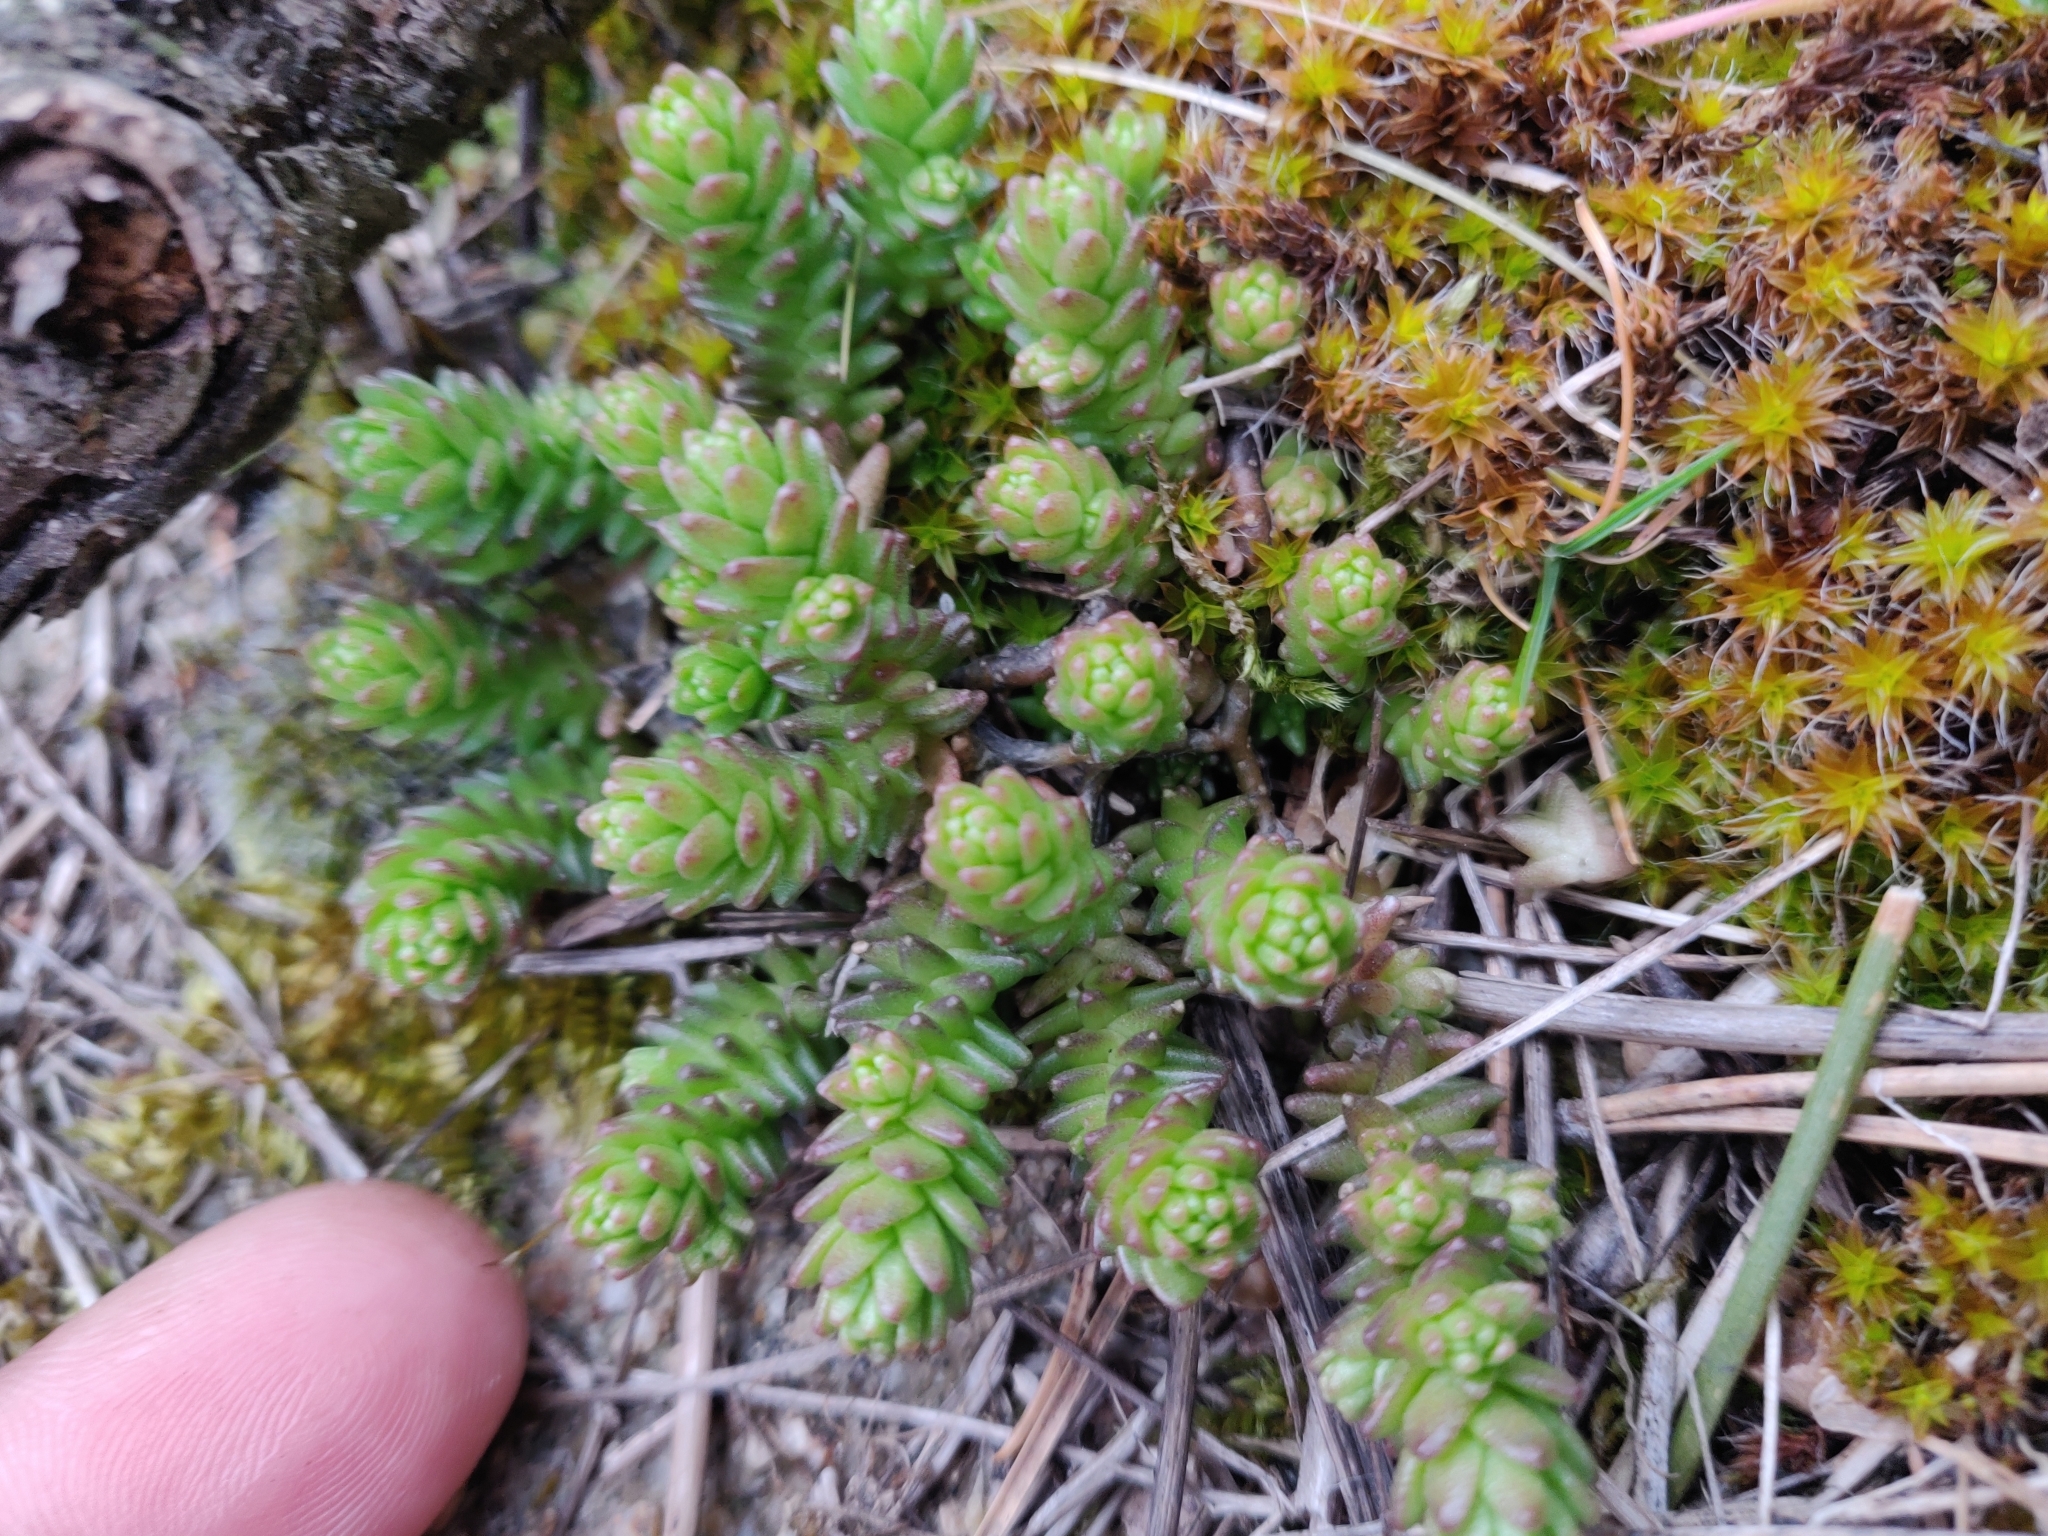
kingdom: Plantae
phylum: Tracheophyta
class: Magnoliopsida
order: Saxifragales
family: Crassulaceae
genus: Sedum
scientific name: Sedum acre
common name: Biting stonecrop
